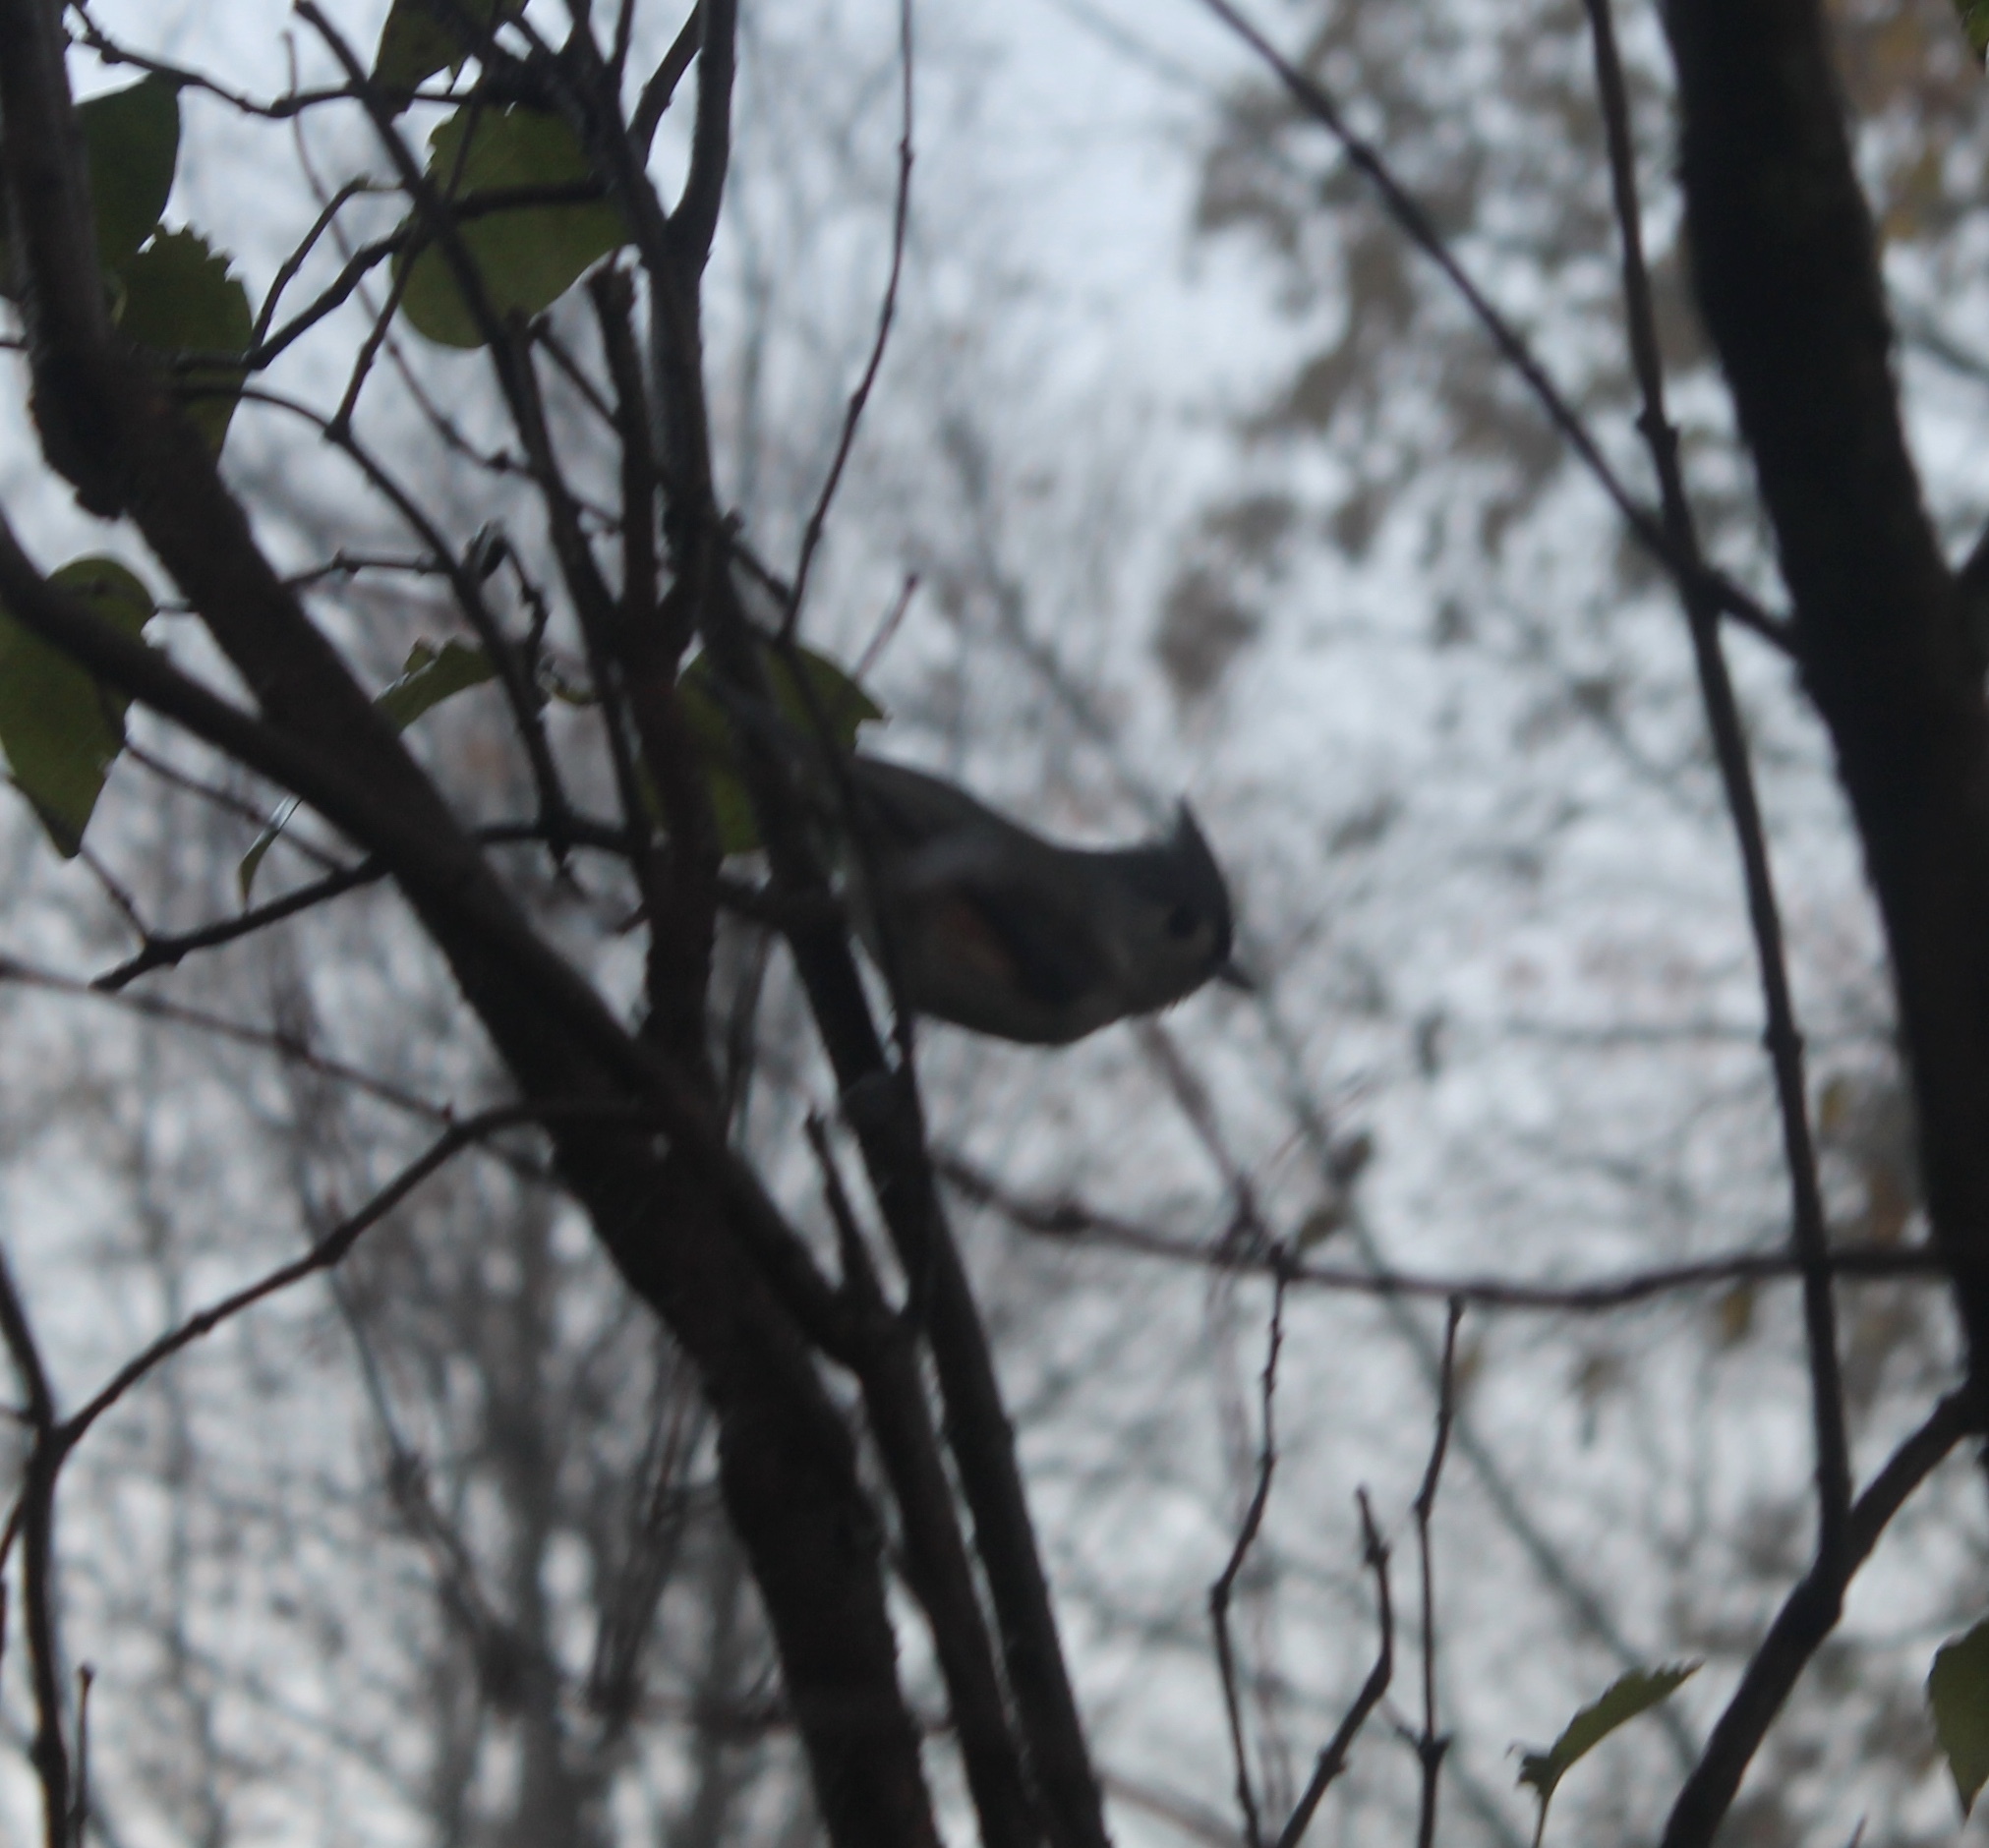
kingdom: Animalia
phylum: Chordata
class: Aves
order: Passeriformes
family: Paridae
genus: Baeolophus
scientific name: Baeolophus bicolor
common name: Tufted titmouse
